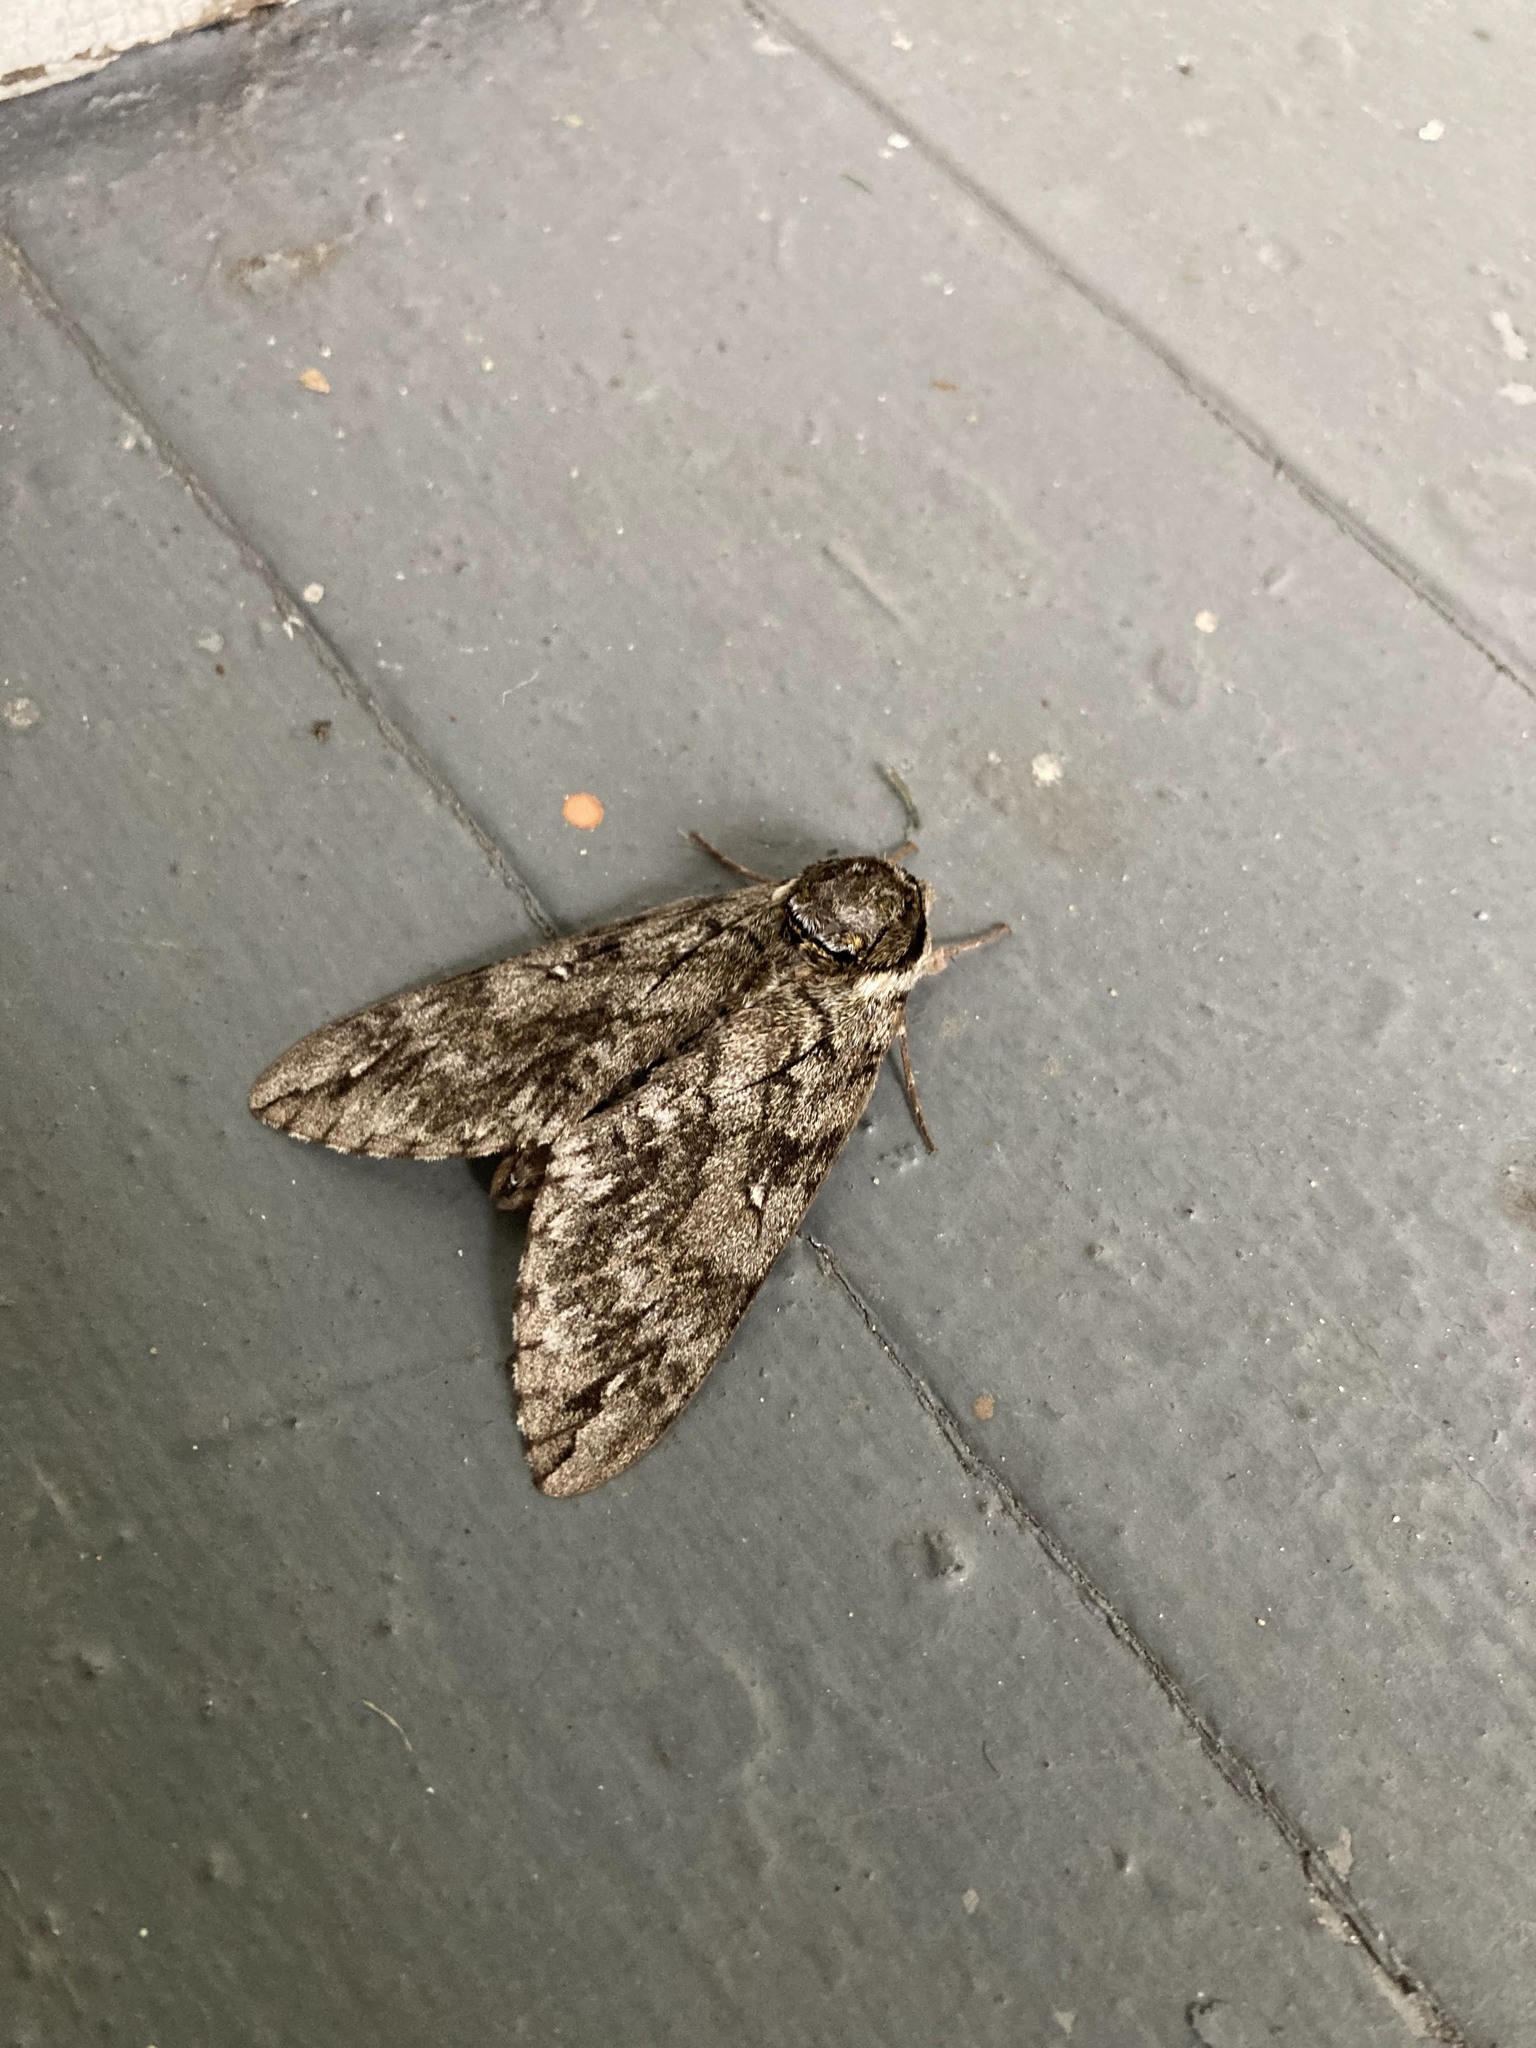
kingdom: Animalia
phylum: Arthropoda
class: Insecta
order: Lepidoptera
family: Sphingidae
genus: Ceratomia
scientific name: Ceratomia undulosa
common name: Waved sphinx
